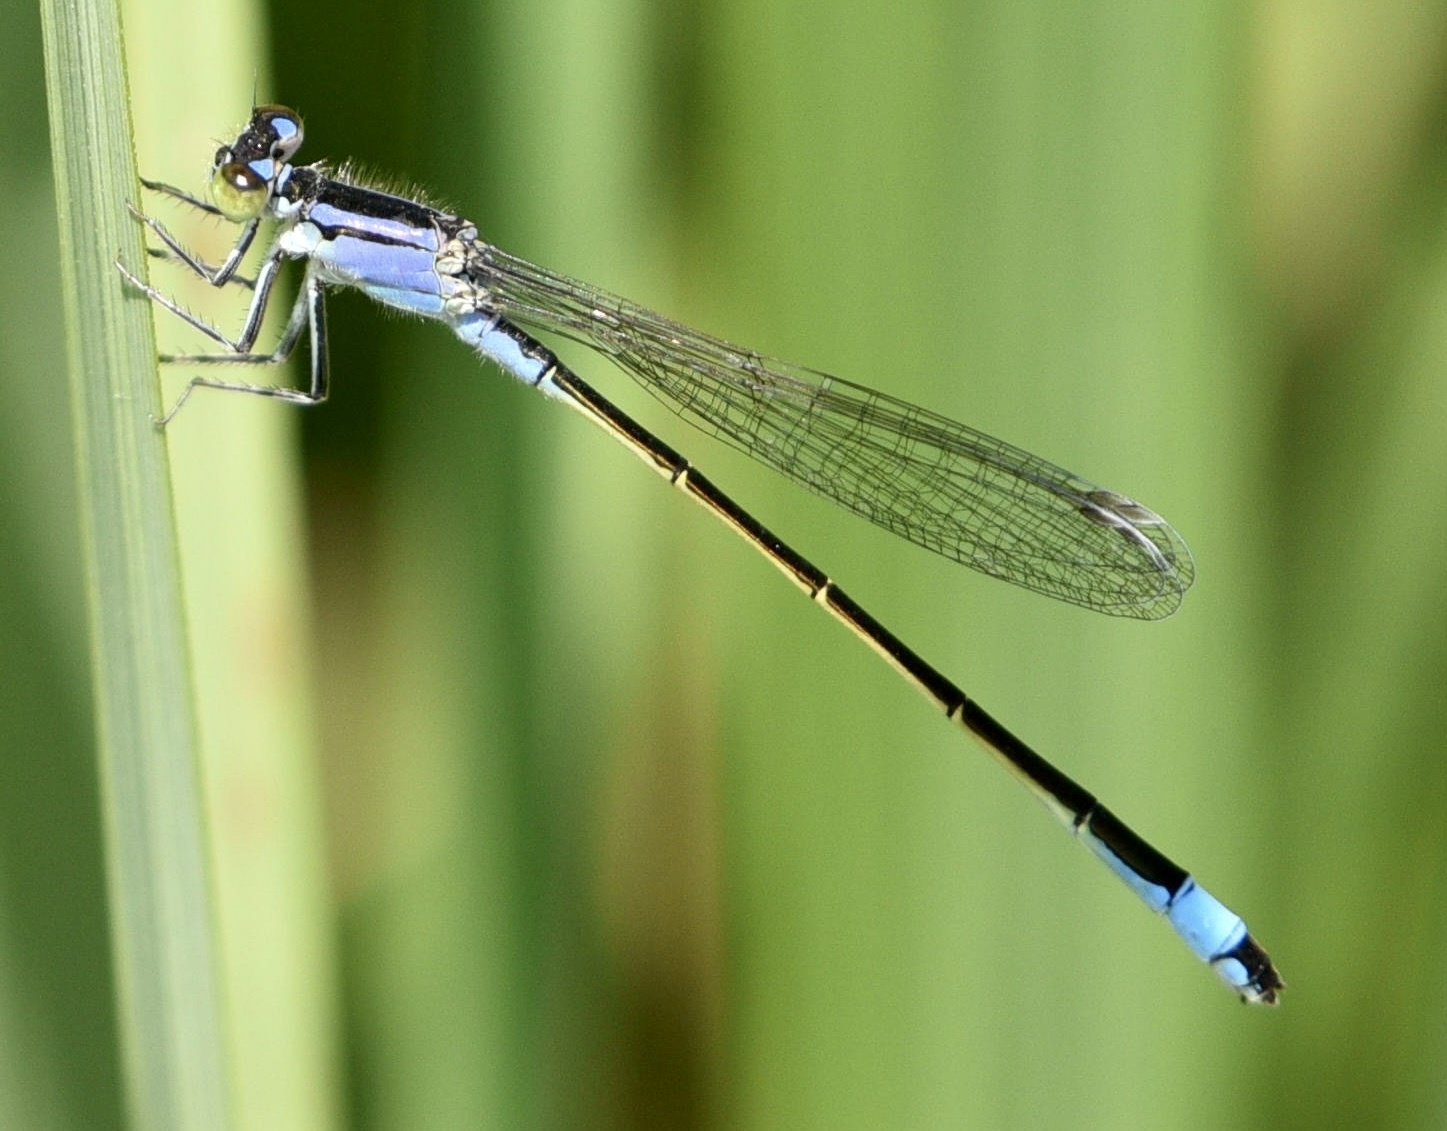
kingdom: Animalia
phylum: Arthropoda
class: Insecta
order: Odonata
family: Coenagrionidae
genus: Ischnura
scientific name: Ischnura elegans
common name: Blue-tailed damselfly
